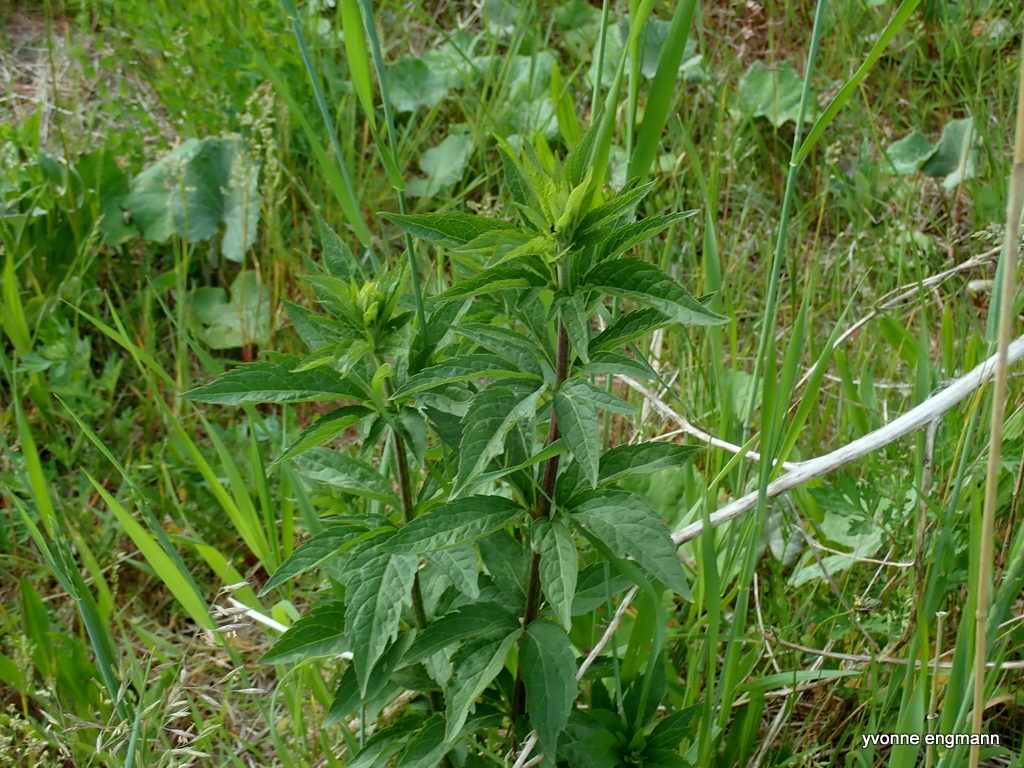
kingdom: Plantae
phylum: Tracheophyta
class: Magnoliopsida
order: Asterales
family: Asteraceae
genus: Eupatorium
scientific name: Eupatorium cannabinum
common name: Hemp-agrimony
